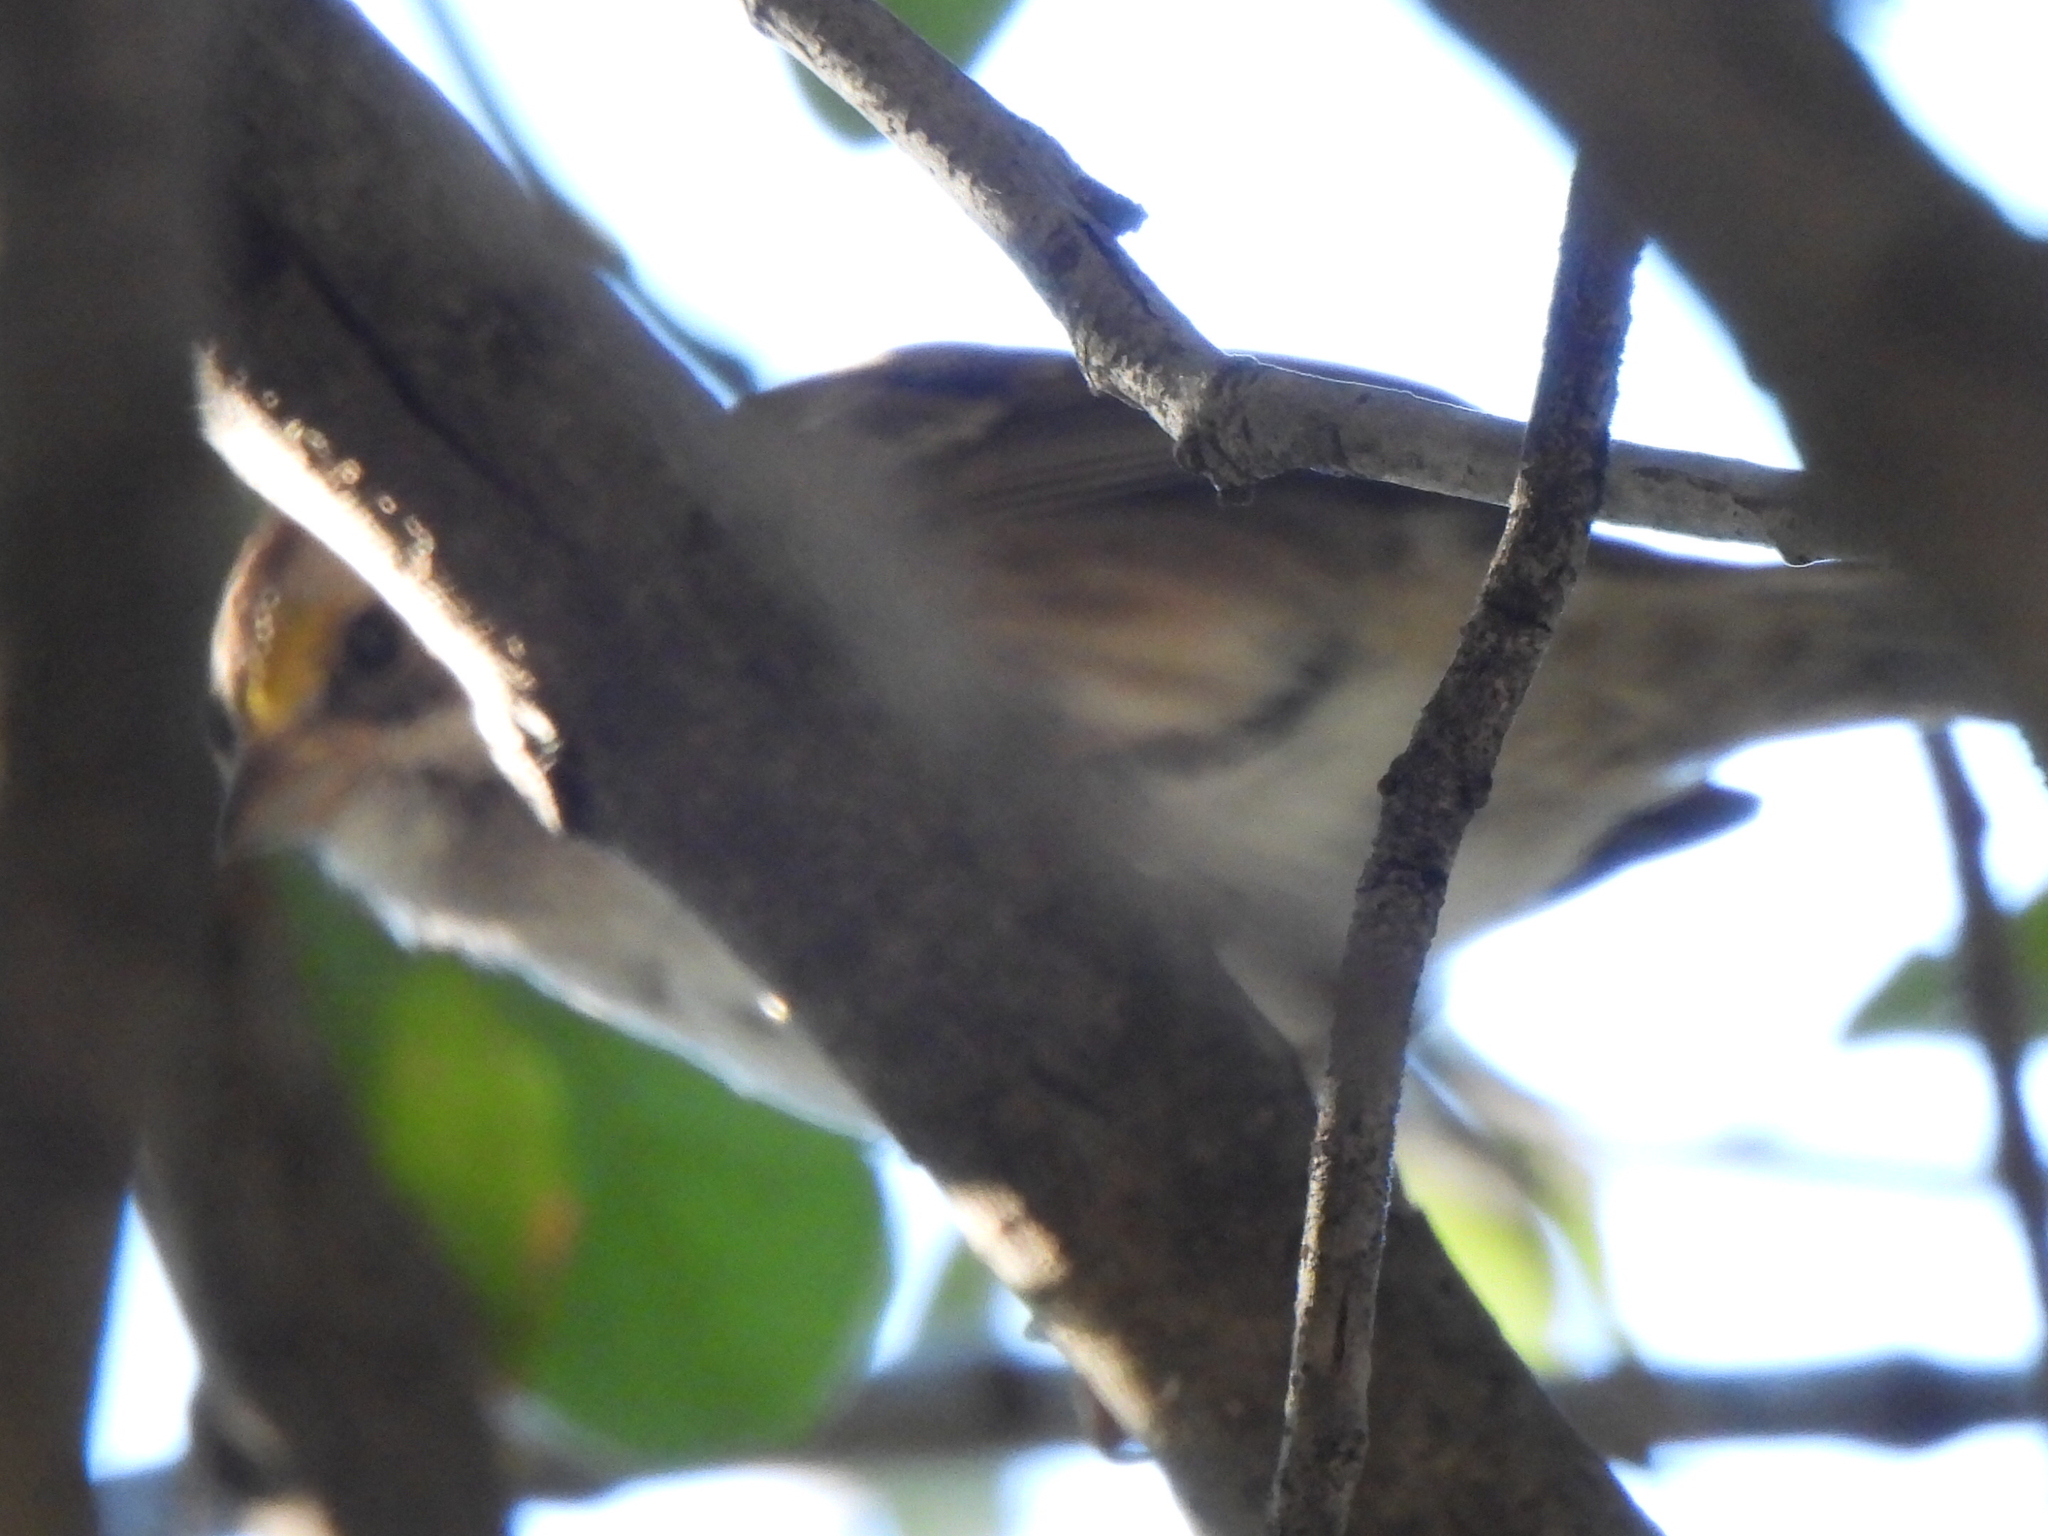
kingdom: Animalia
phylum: Chordata
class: Aves
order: Passeriformes
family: Passerellidae
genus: Zonotrichia
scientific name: Zonotrichia albicollis
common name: White-throated sparrow
